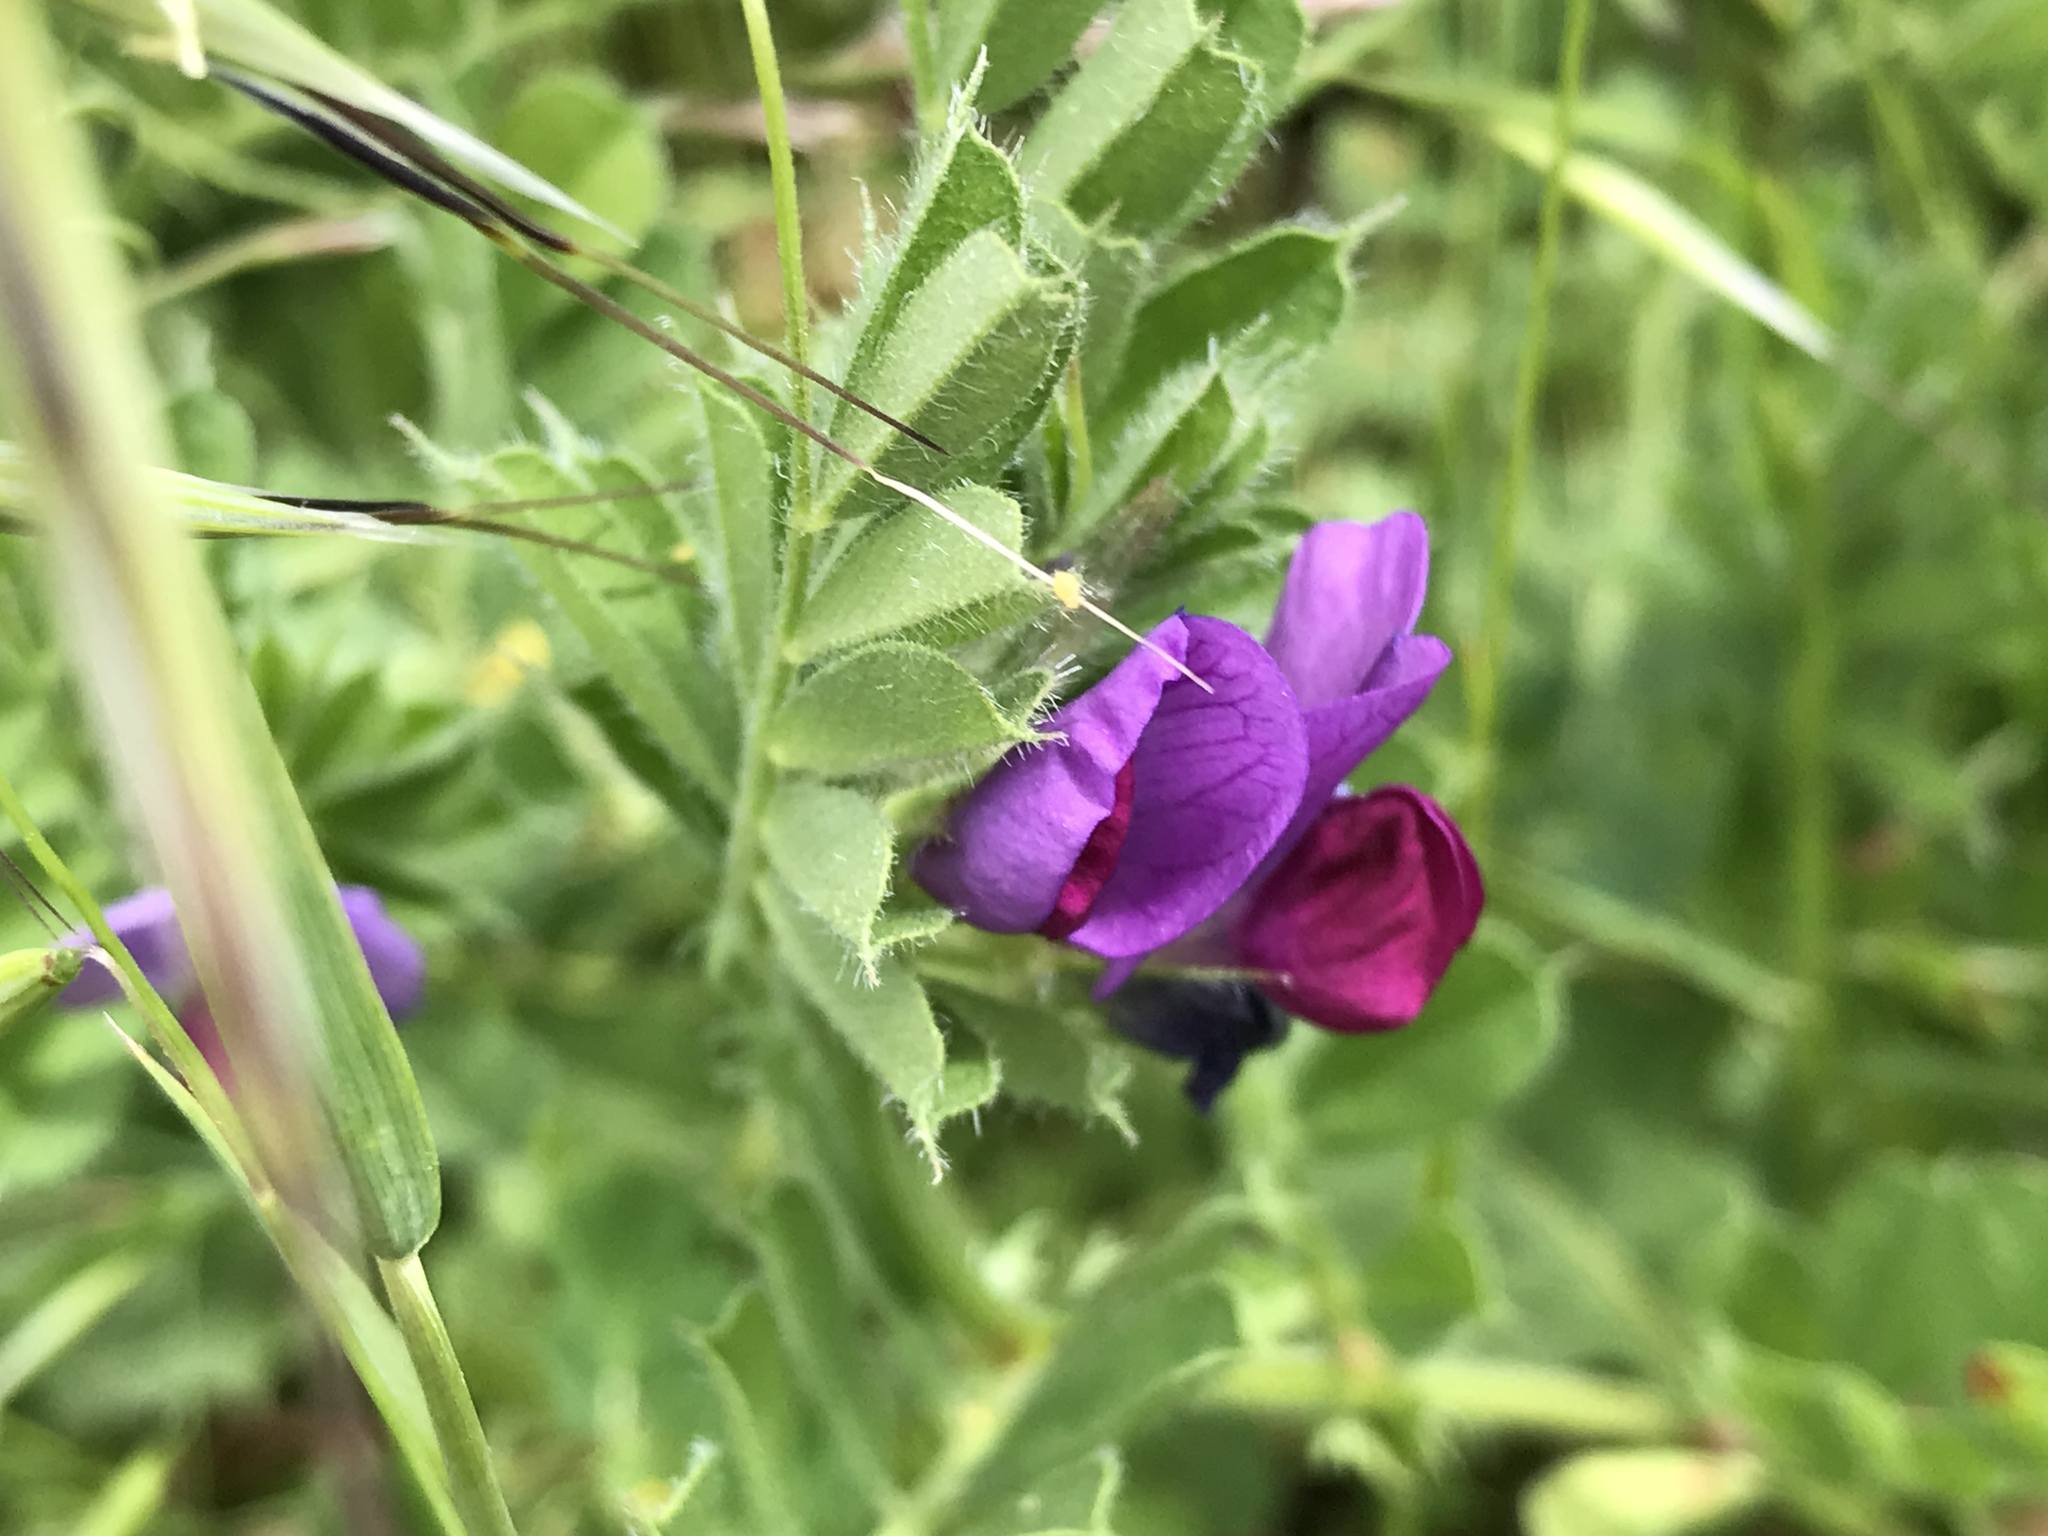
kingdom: Plantae
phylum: Tracheophyta
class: Magnoliopsida
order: Fabales
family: Fabaceae
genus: Vicia
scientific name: Vicia sativa
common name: Garden vetch
